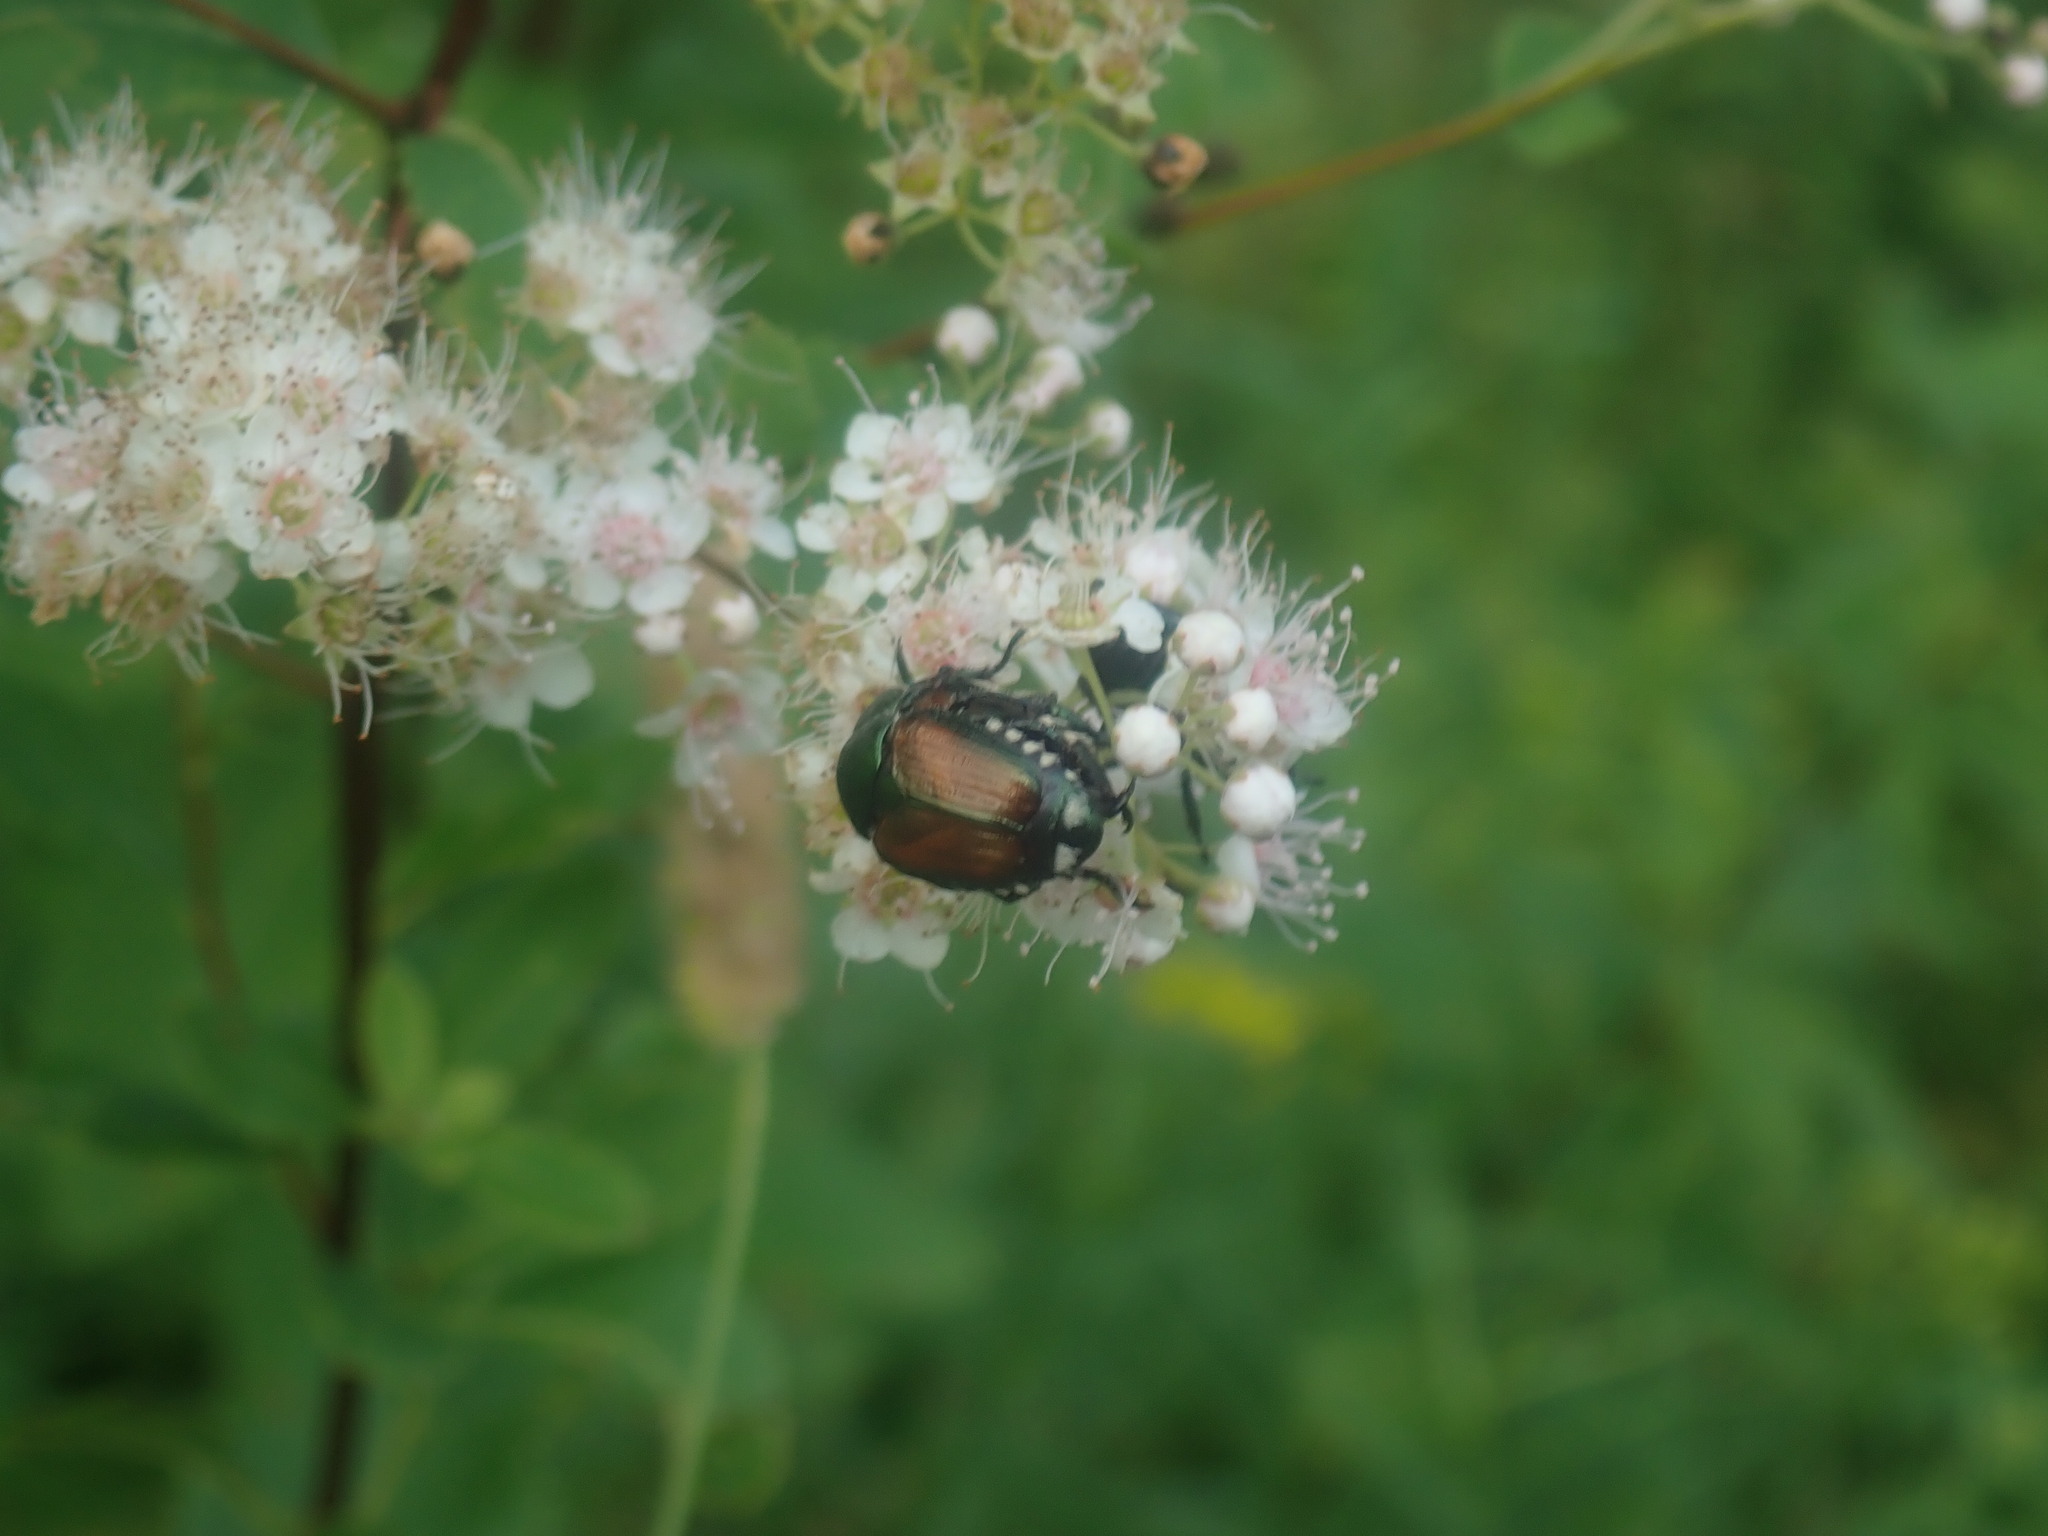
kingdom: Animalia
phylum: Arthropoda
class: Insecta
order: Coleoptera
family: Scarabaeidae
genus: Popillia
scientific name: Popillia japonica
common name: Japanese beetle
